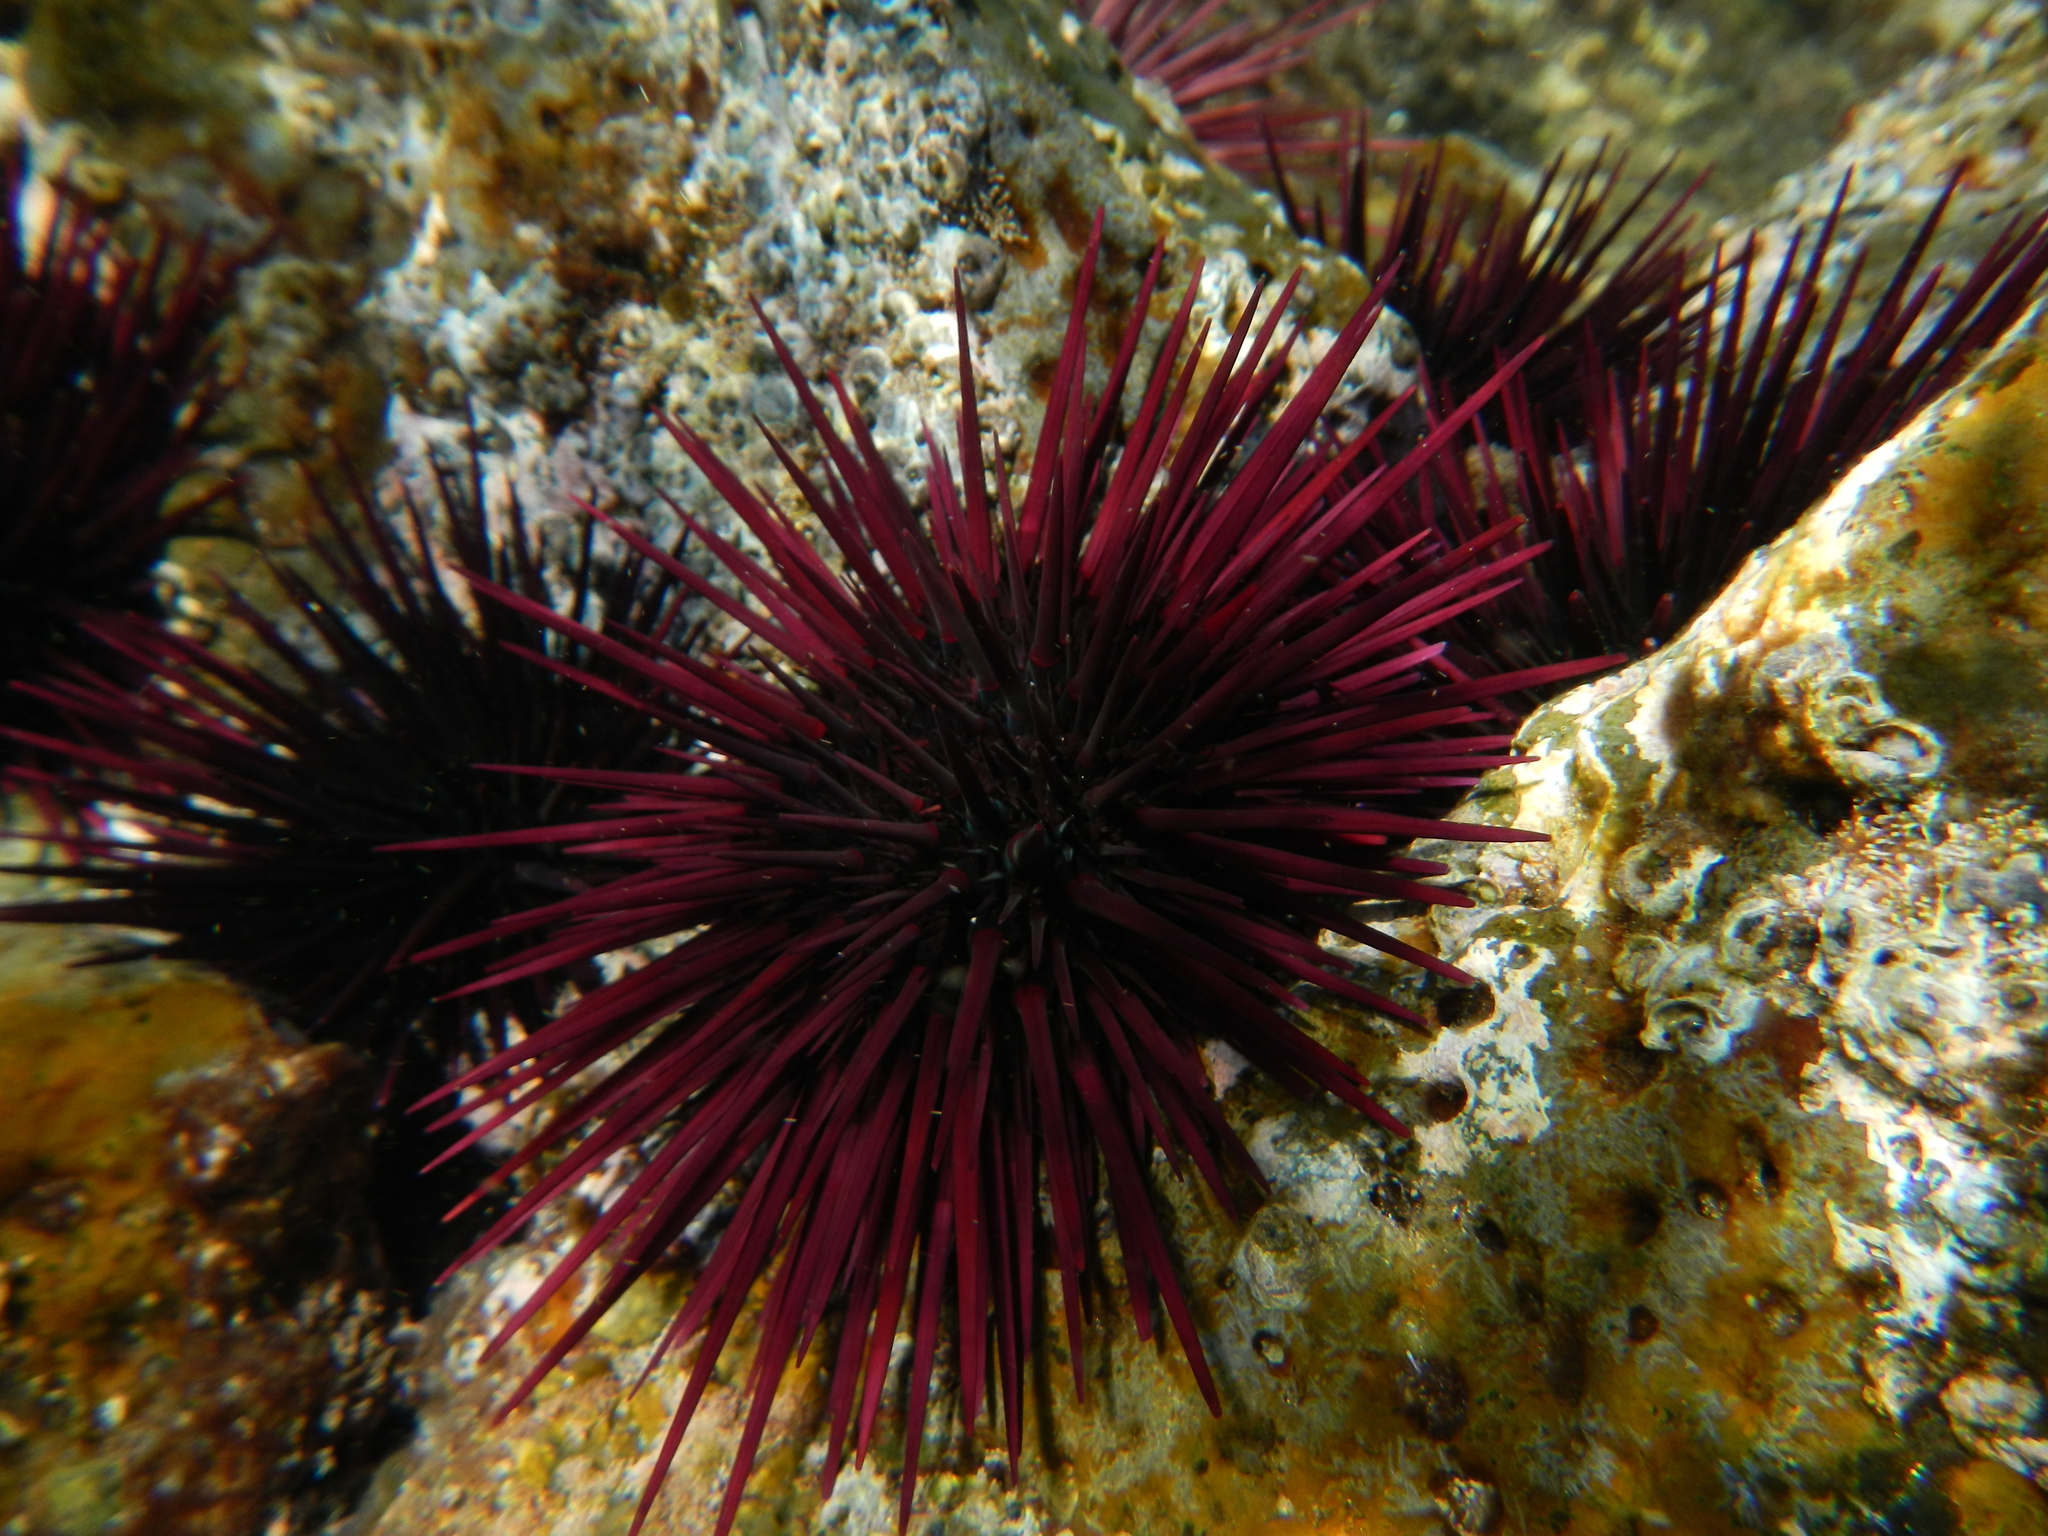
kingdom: Animalia
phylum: Echinodermata
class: Echinoidea
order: Camarodonta
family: Echinometridae
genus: Echinometra
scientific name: Echinometra insularis
